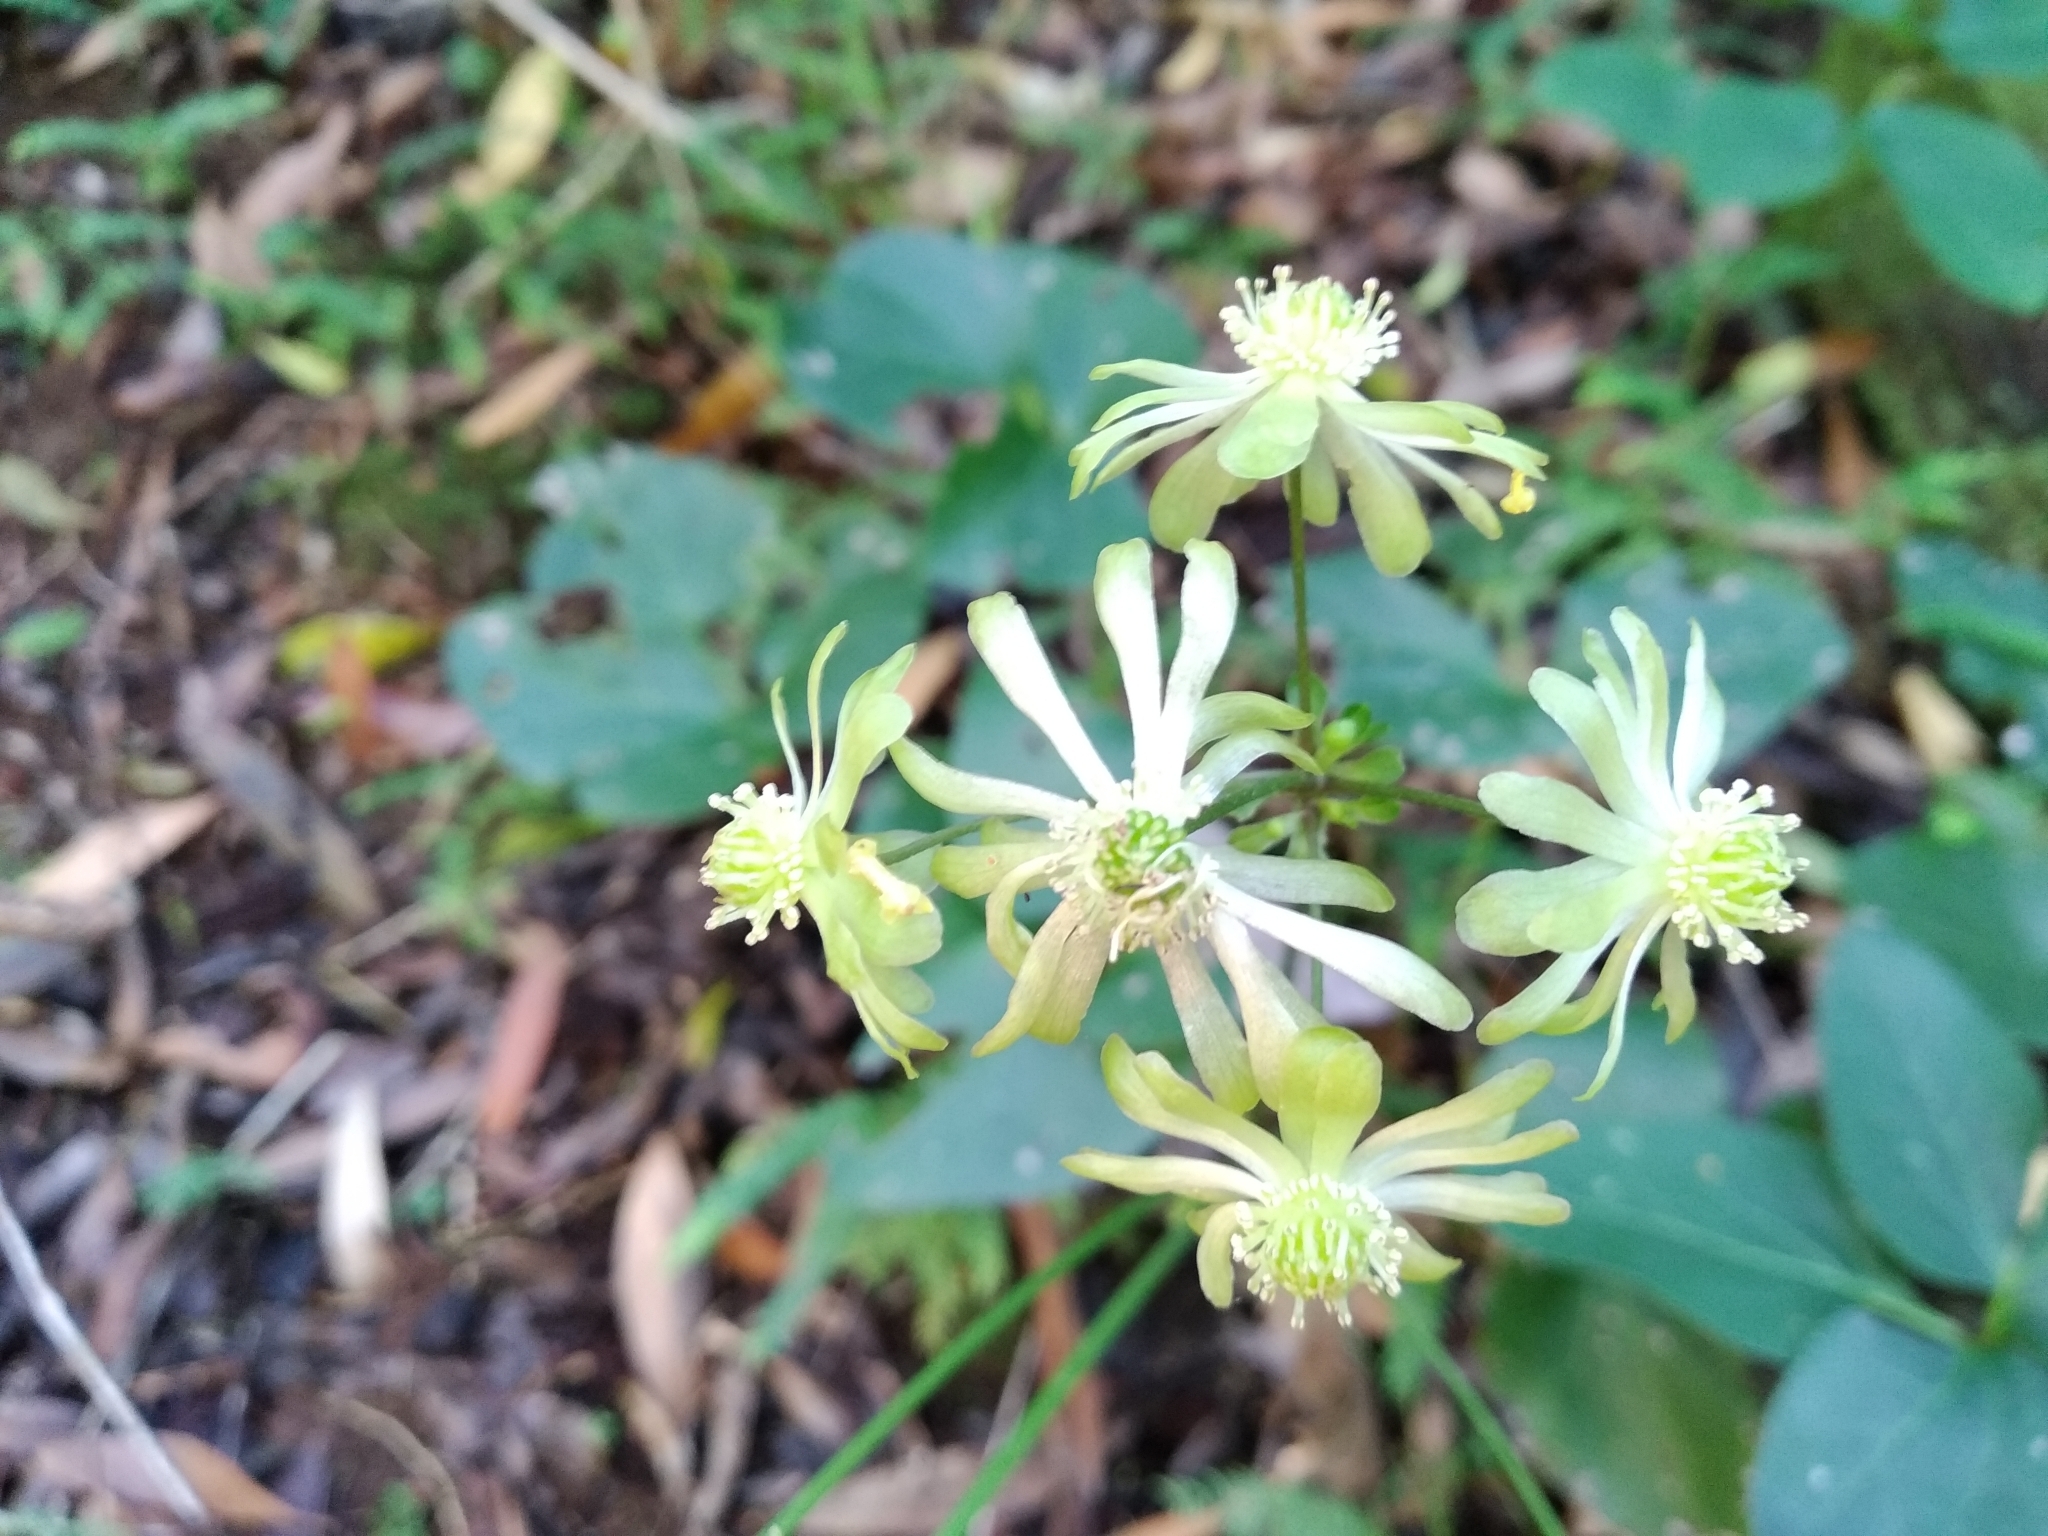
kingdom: Plantae
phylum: Tracheophyta
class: Magnoliopsida
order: Ranunculales
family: Ranunculaceae
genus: Knowltonia
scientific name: Knowltonia vesicatoria
